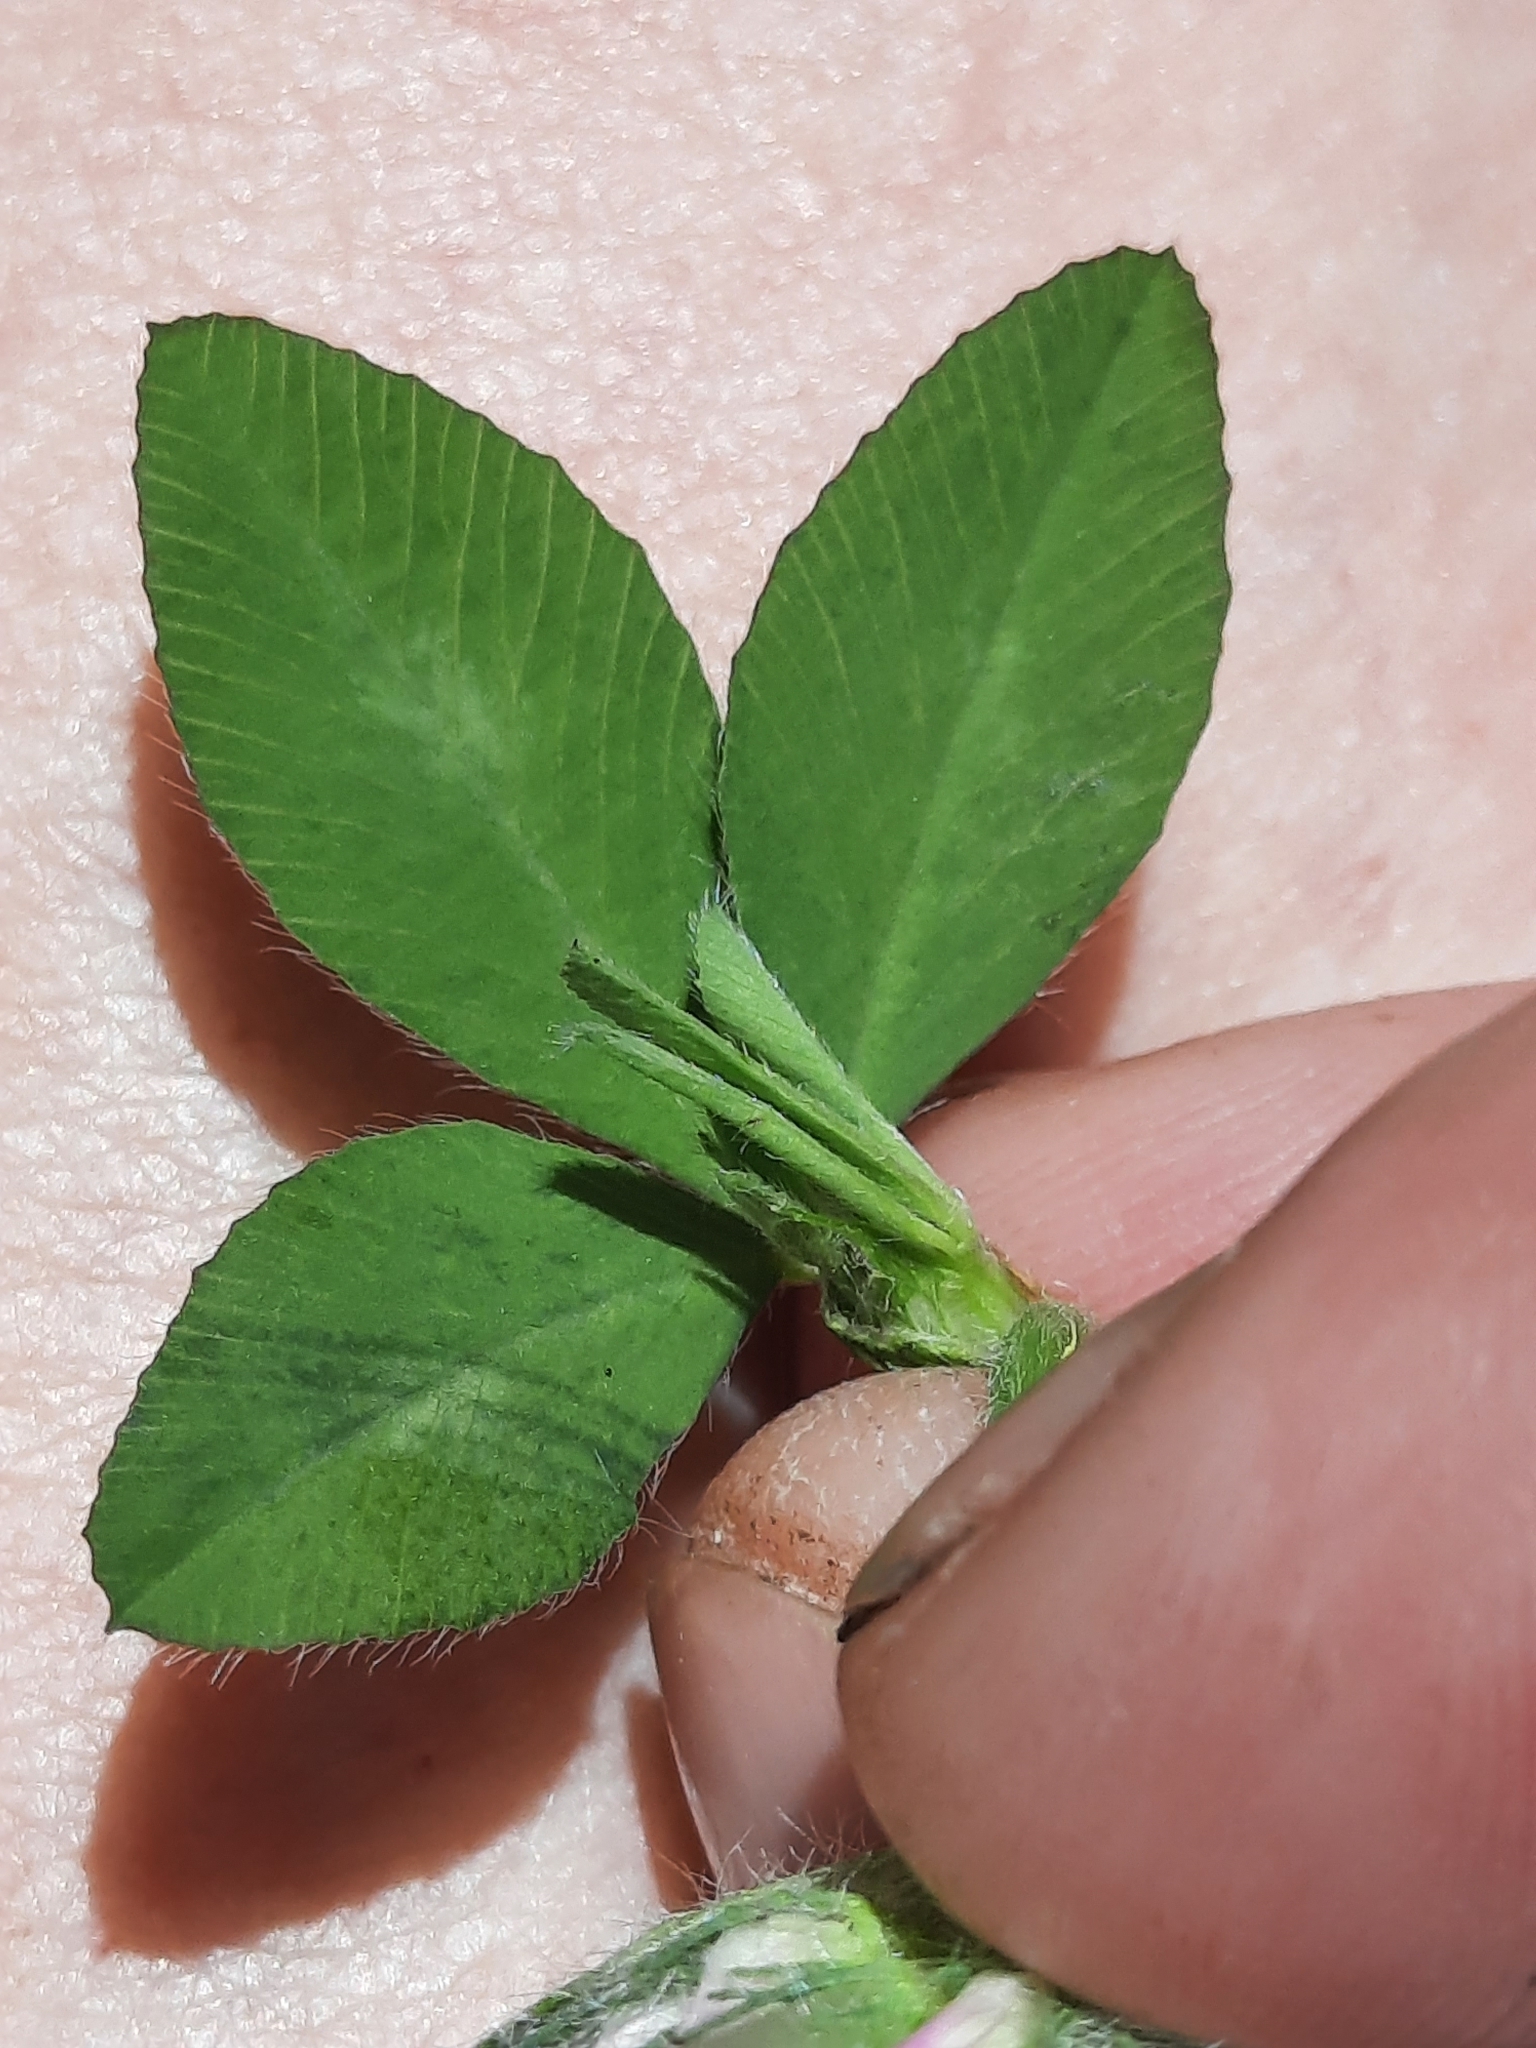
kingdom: Plantae
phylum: Tracheophyta
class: Magnoliopsida
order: Fabales
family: Fabaceae
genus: Trifolium
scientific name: Trifolium pratense
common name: Red clover
